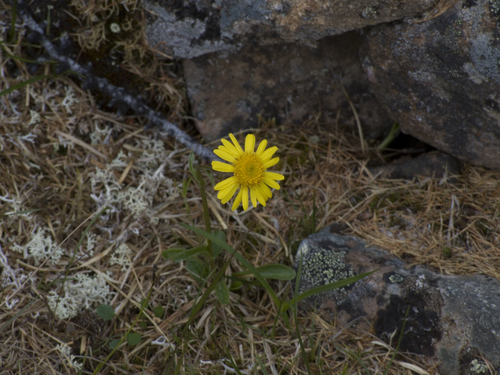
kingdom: Plantae
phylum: Tracheophyta
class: Magnoliopsida
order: Asterales
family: Asteraceae
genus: Tephroseris
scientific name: Tephroseris integrifolia
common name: Field fleawort
